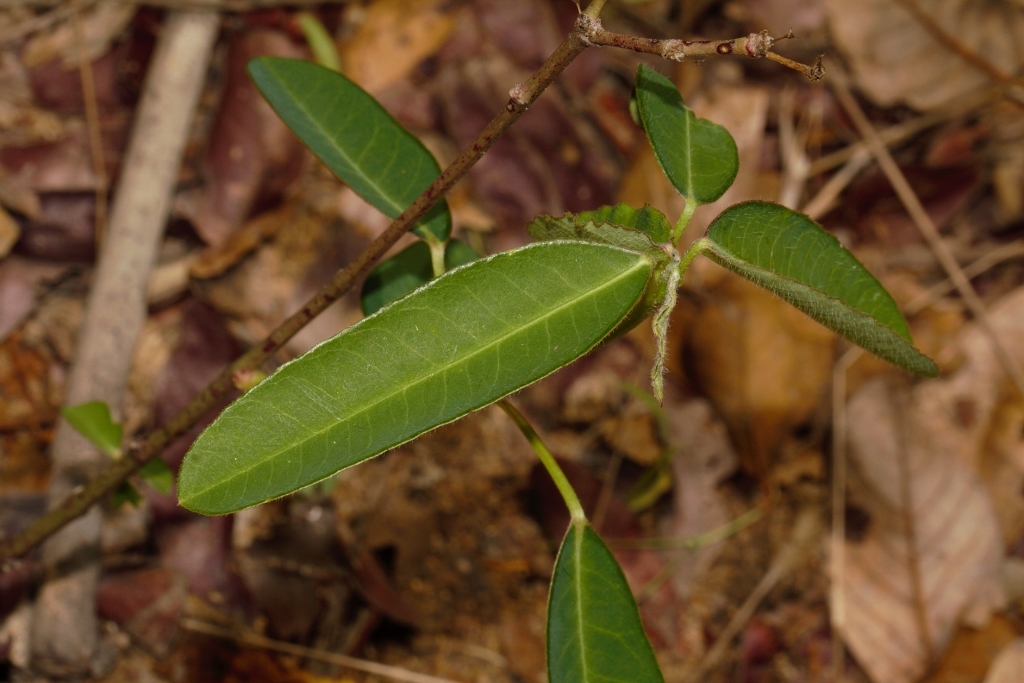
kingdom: Plantae
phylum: Tracheophyta
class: Magnoliopsida
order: Malpighiales
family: Euphorbiaceae
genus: Euphorbia
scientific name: Euphorbia benthamii
